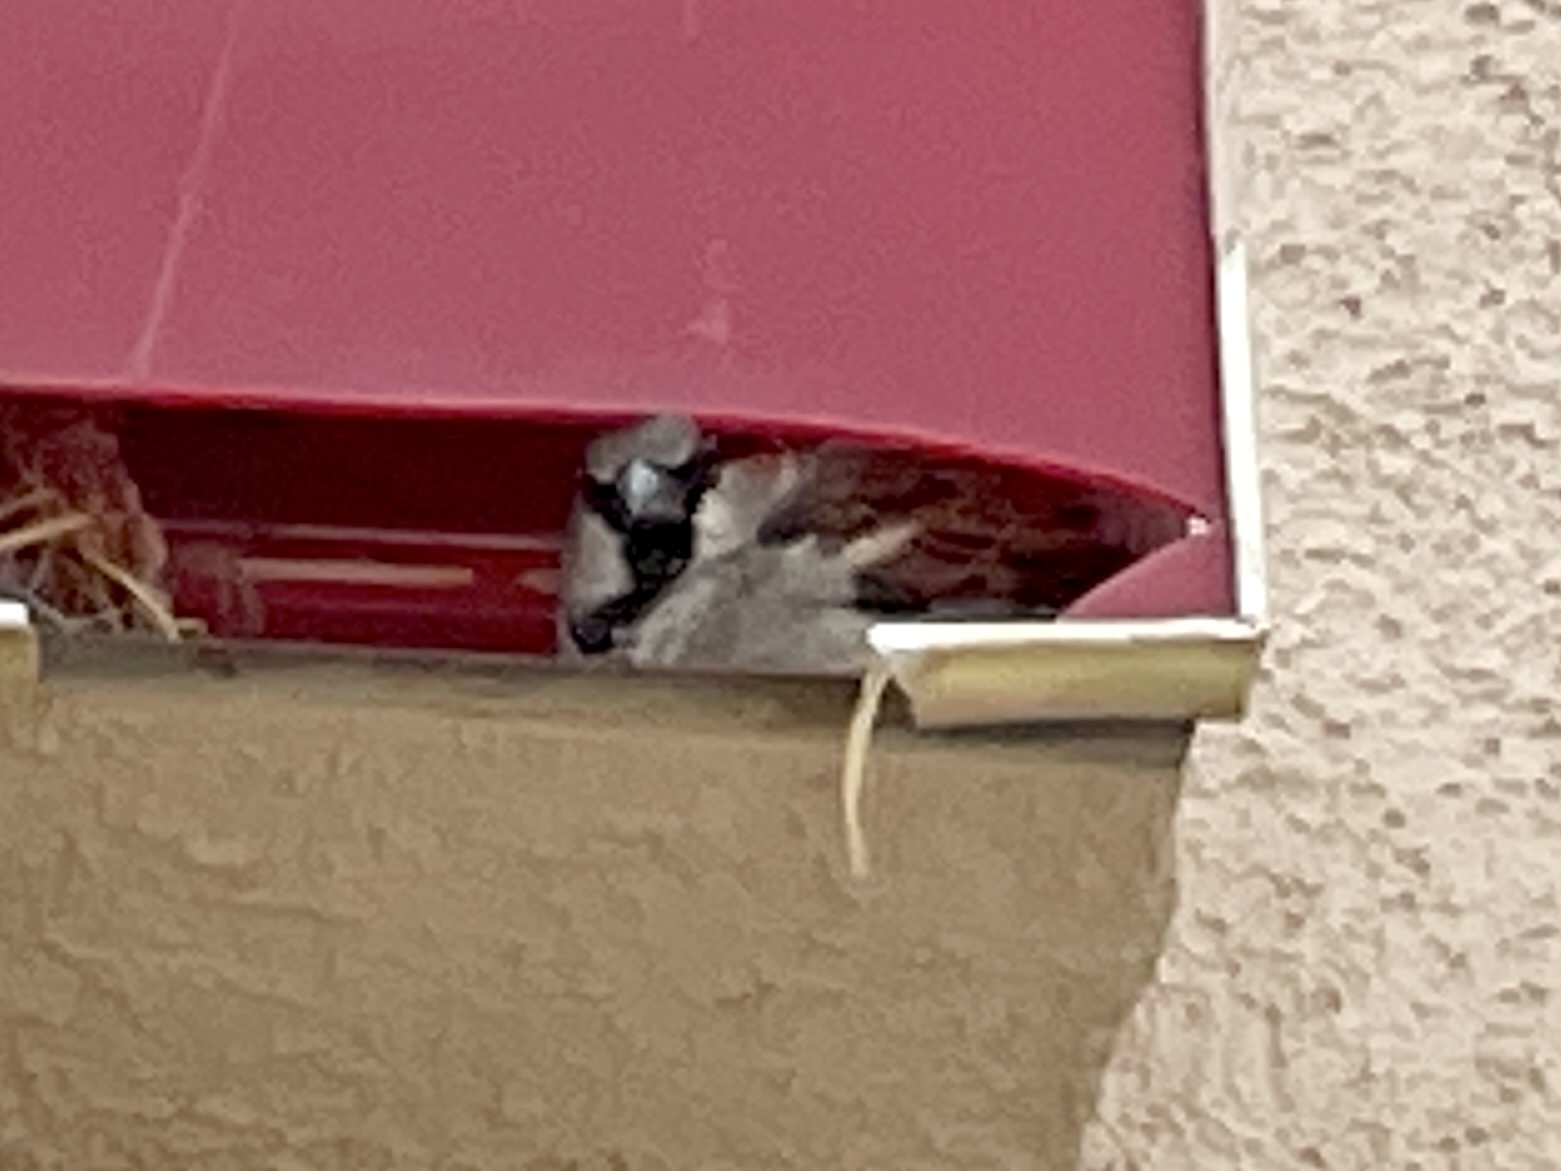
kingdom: Animalia
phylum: Chordata
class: Aves
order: Passeriformes
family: Passeridae
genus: Passer
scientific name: Passer domesticus
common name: House sparrow
